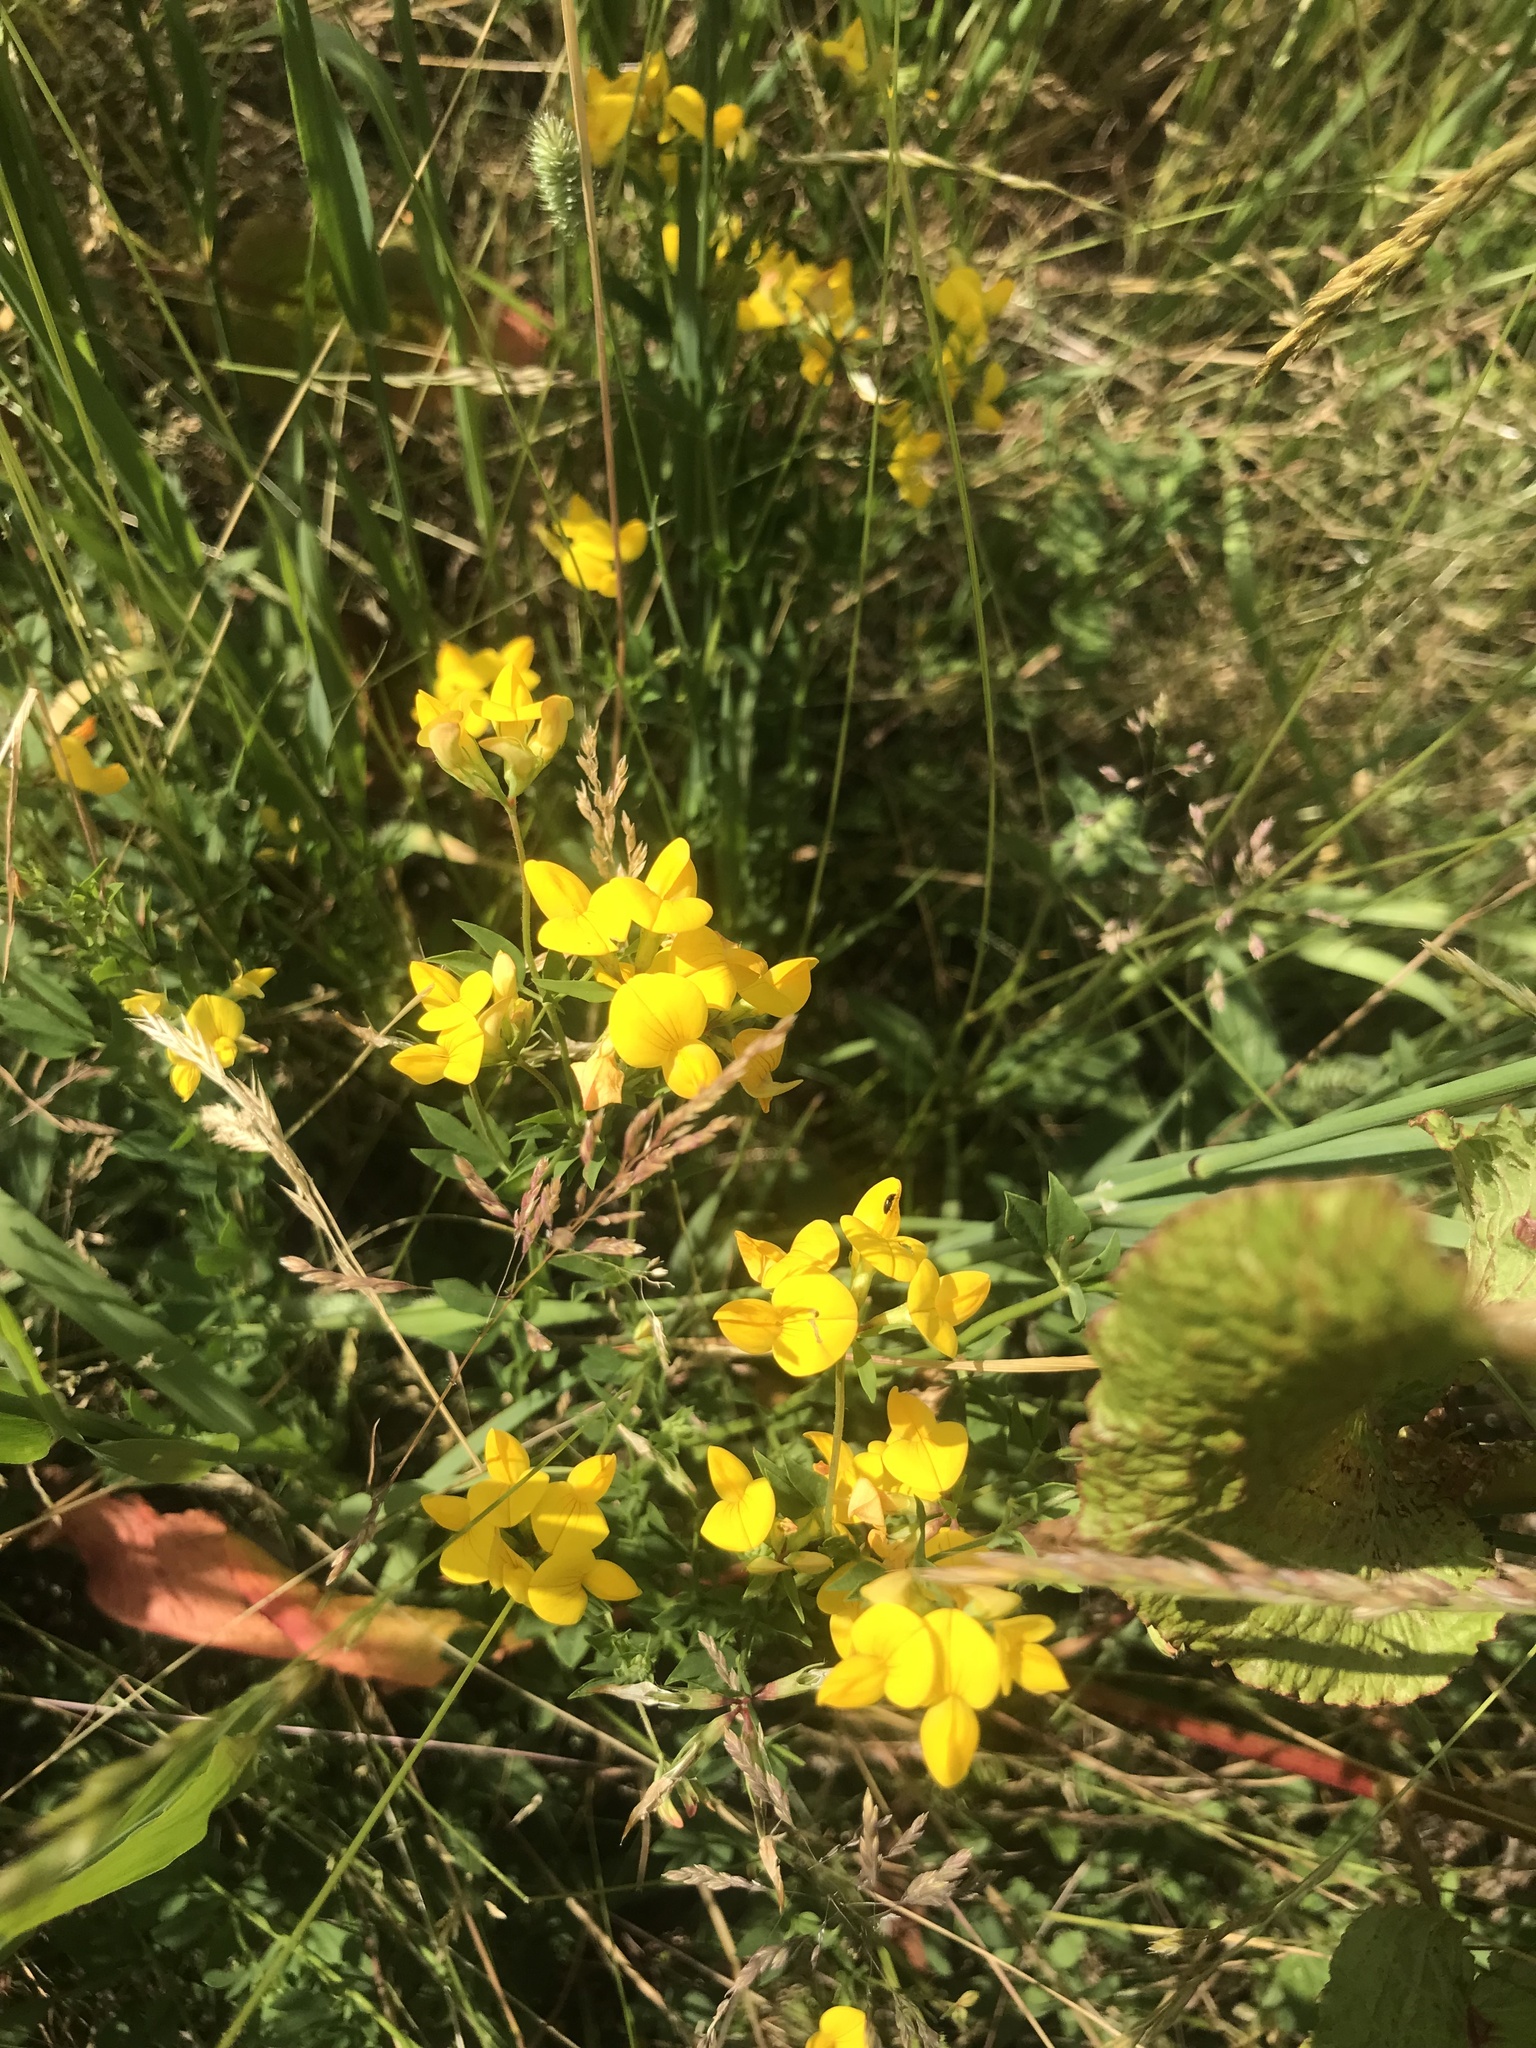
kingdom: Plantae
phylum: Tracheophyta
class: Magnoliopsida
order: Fabales
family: Fabaceae
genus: Lotus
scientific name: Lotus corniculatus
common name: Common bird's-foot-trefoil
